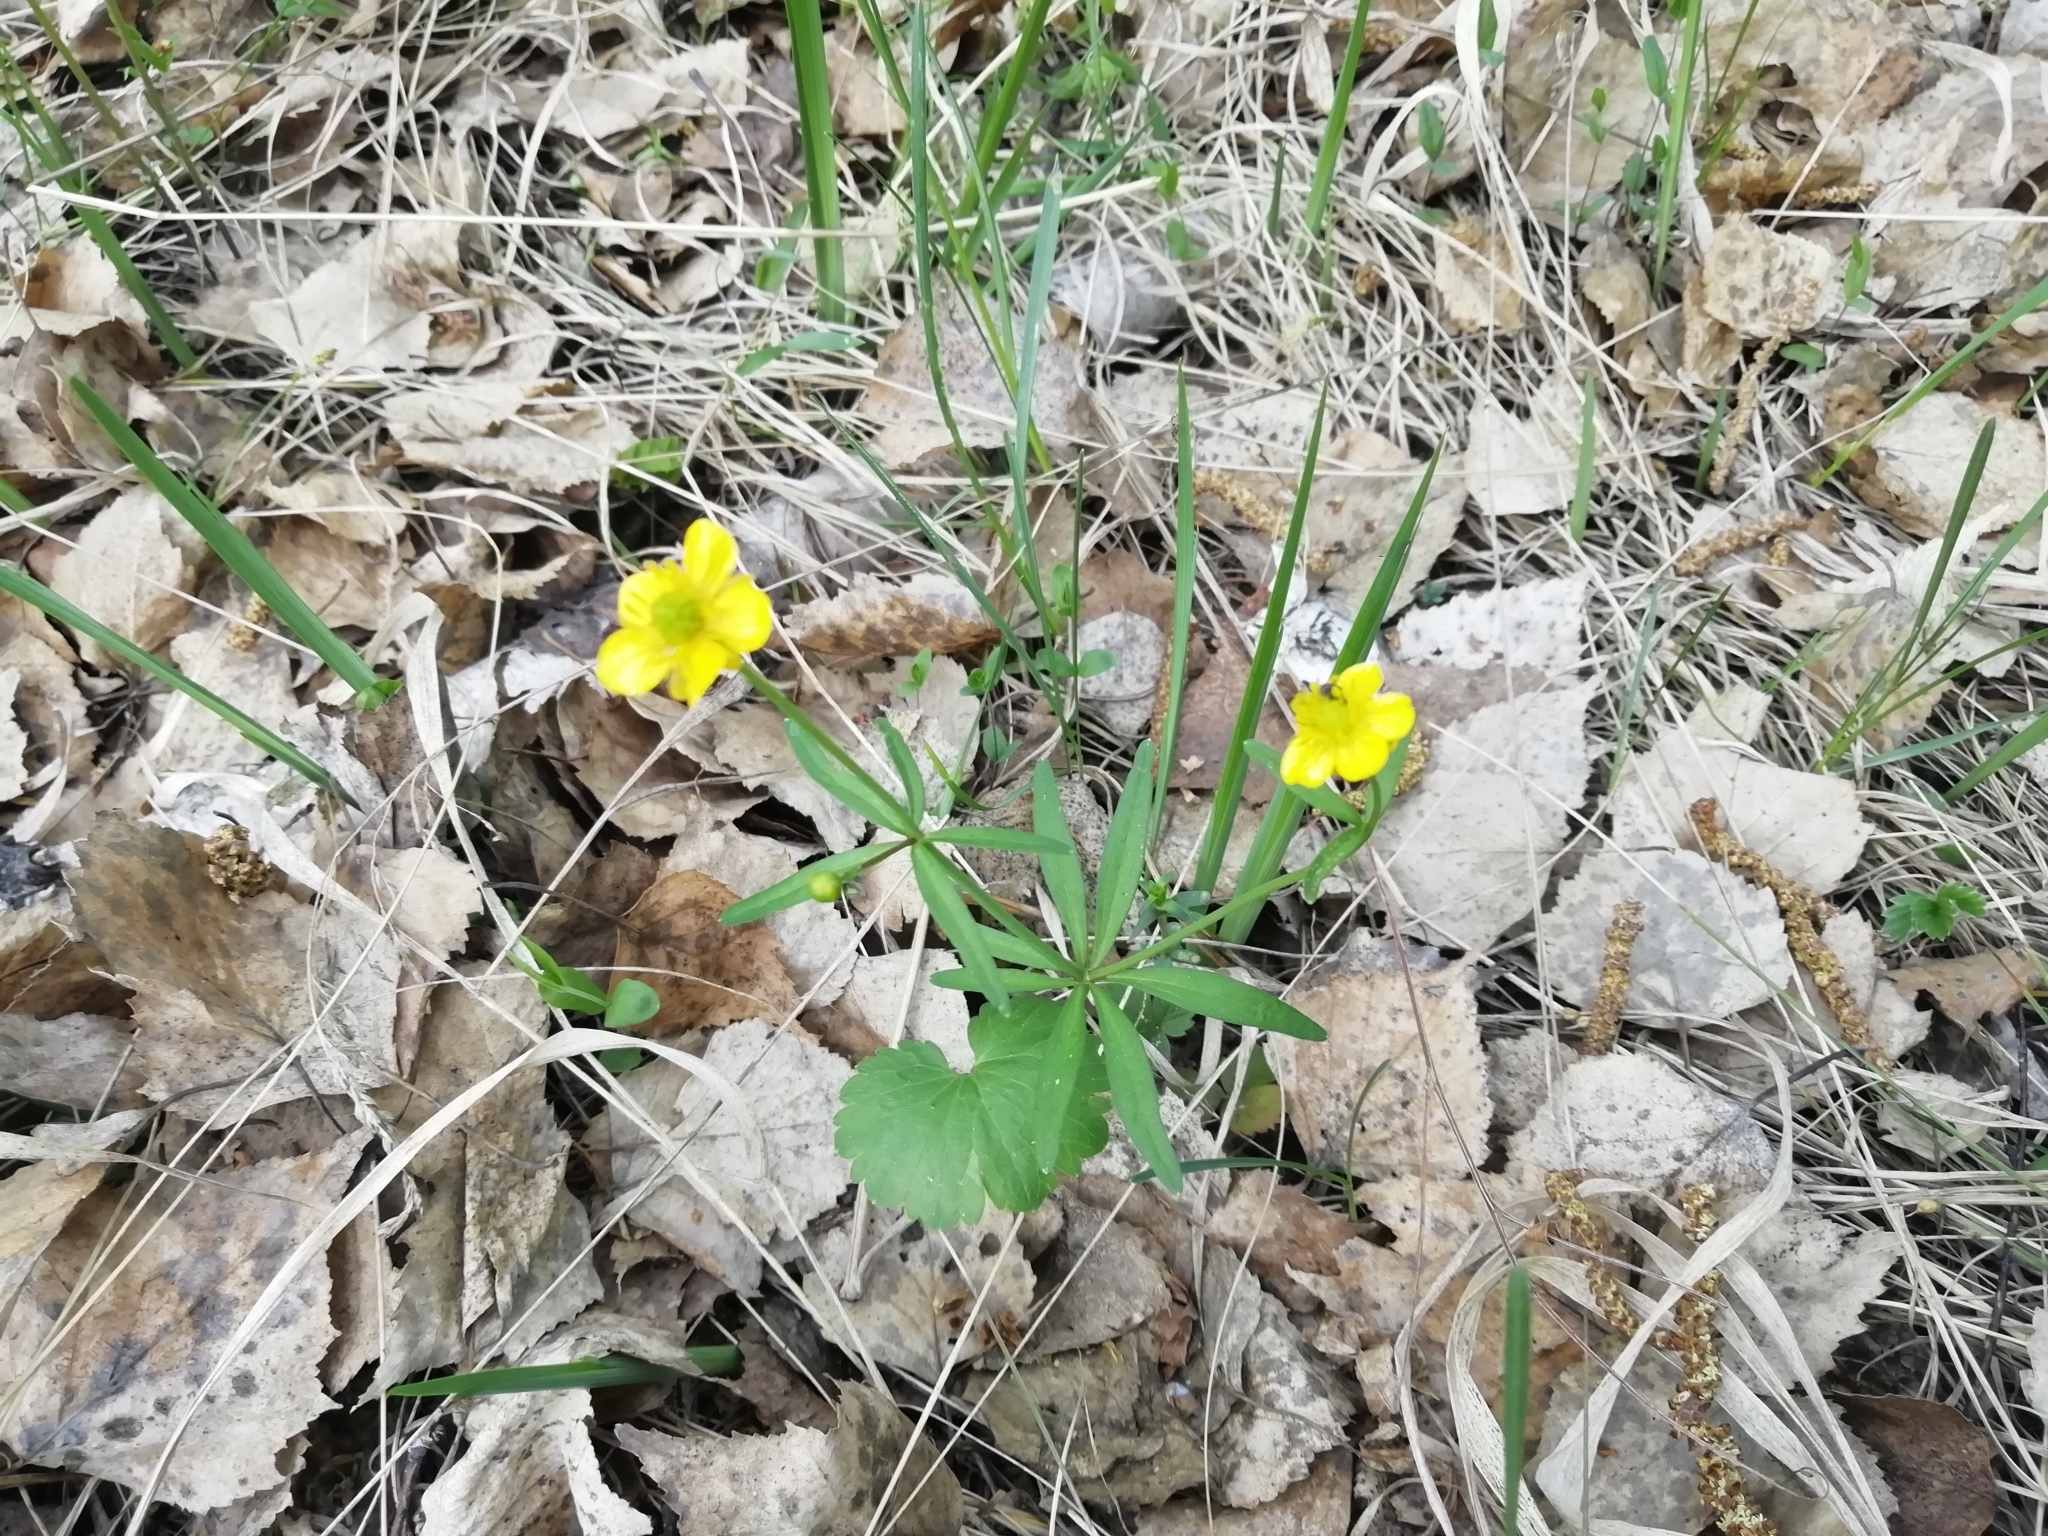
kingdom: Plantae
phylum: Tracheophyta
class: Magnoliopsida
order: Ranunculales
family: Ranunculaceae
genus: Ranunculus
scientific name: Ranunculus monophyllus
